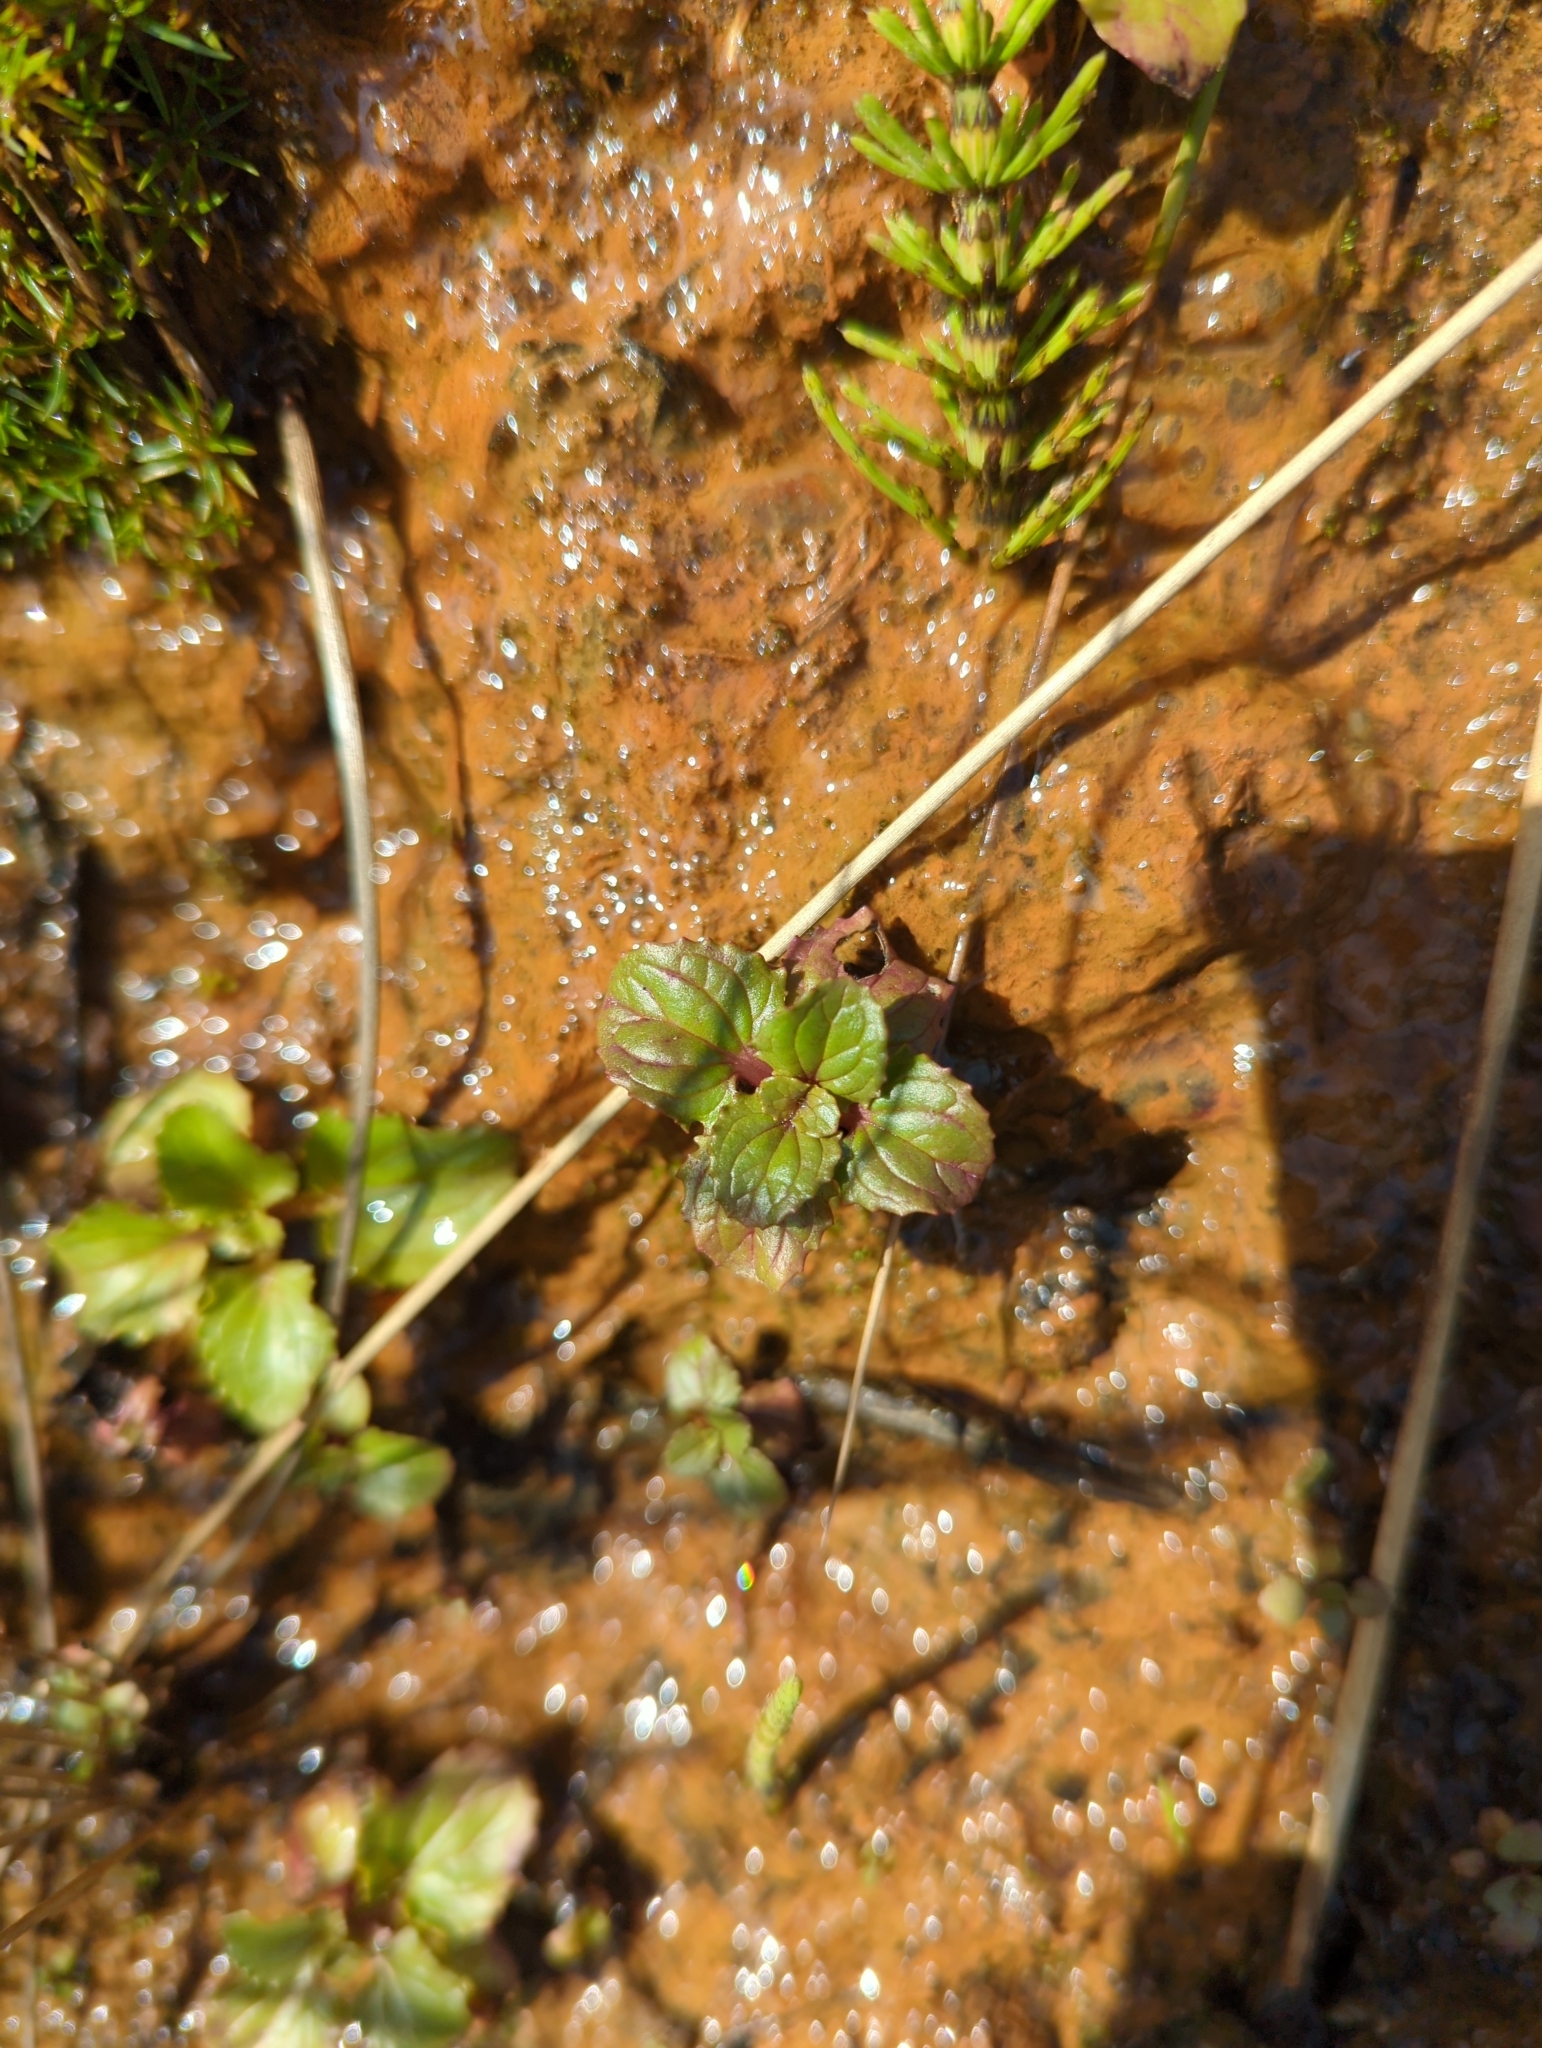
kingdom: Plantae
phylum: Tracheophyta
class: Magnoliopsida
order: Lamiales
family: Phrymaceae
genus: Erythranthe
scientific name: Erythranthe grandis
